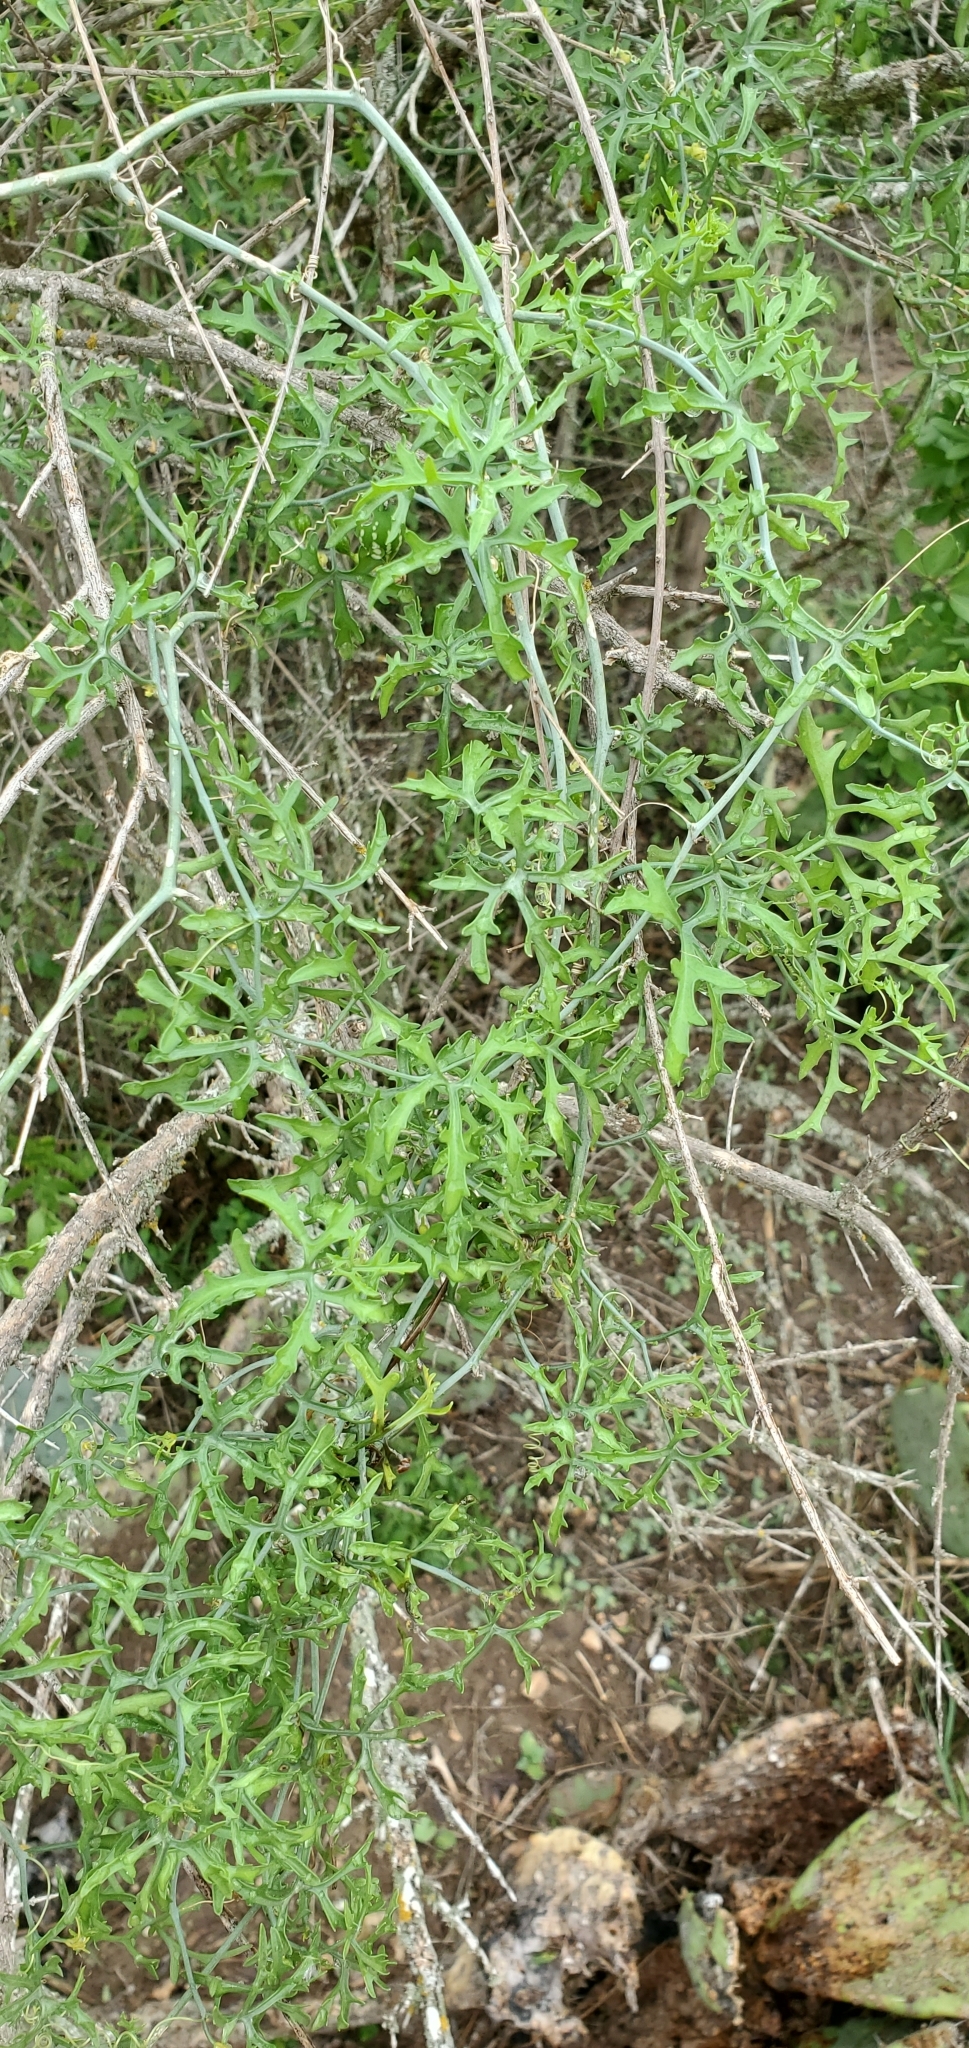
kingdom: Plantae
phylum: Tracheophyta
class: Magnoliopsida
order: Cucurbitales
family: Cucurbitaceae
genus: Ibervillea
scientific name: Ibervillea tenuisecta
